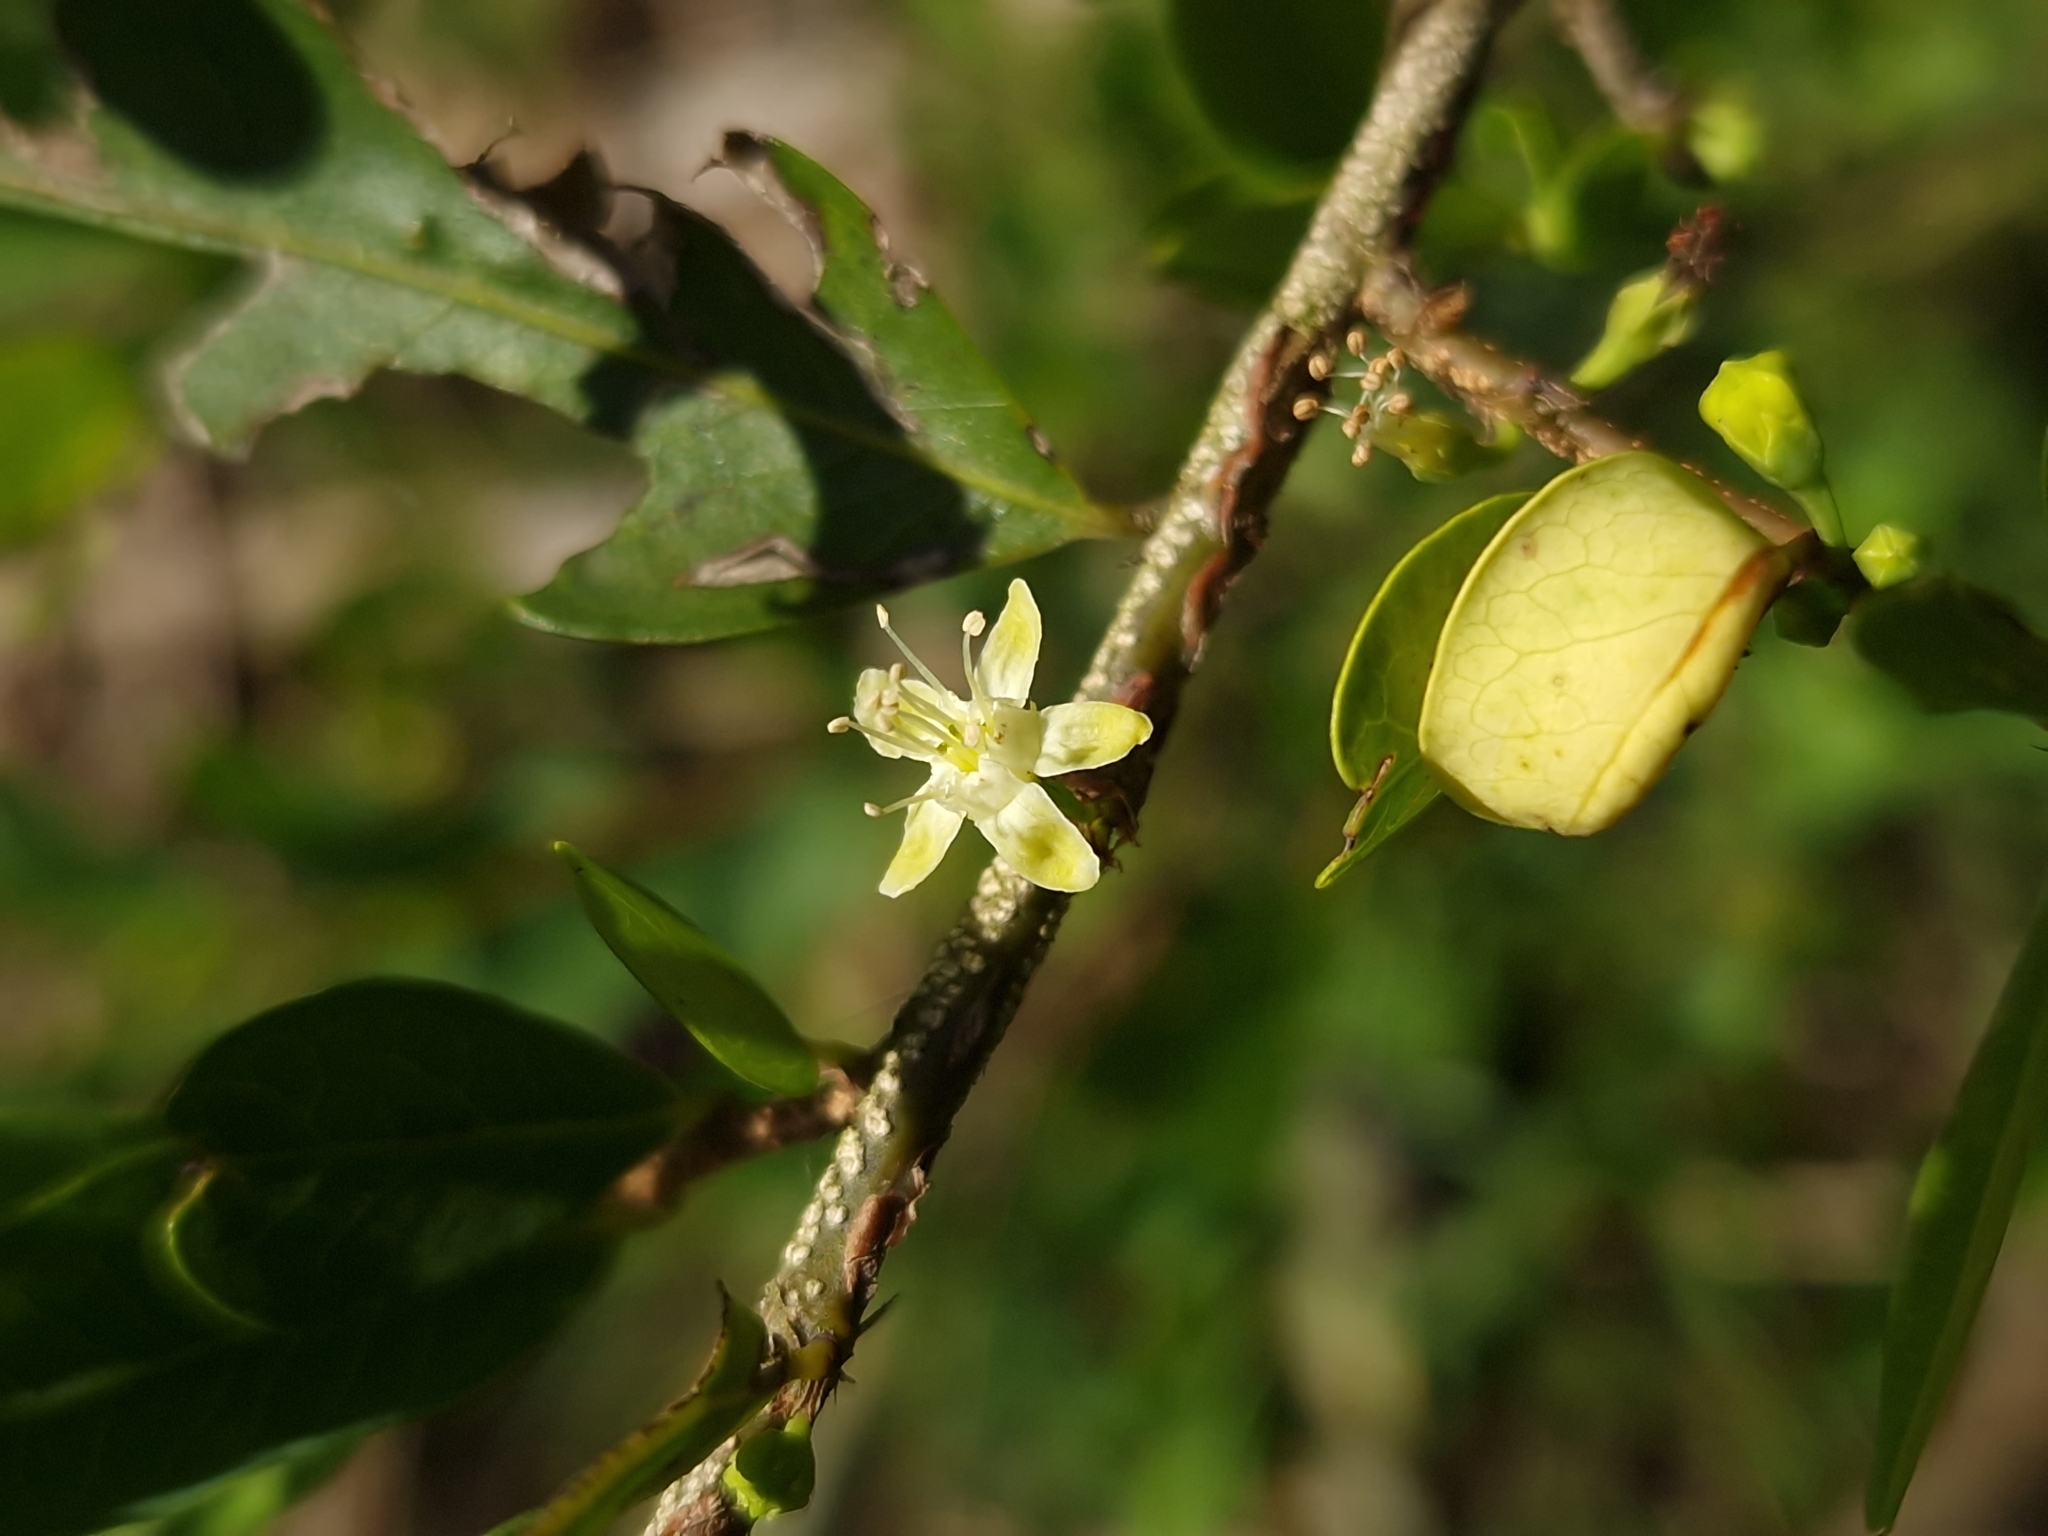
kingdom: Plantae
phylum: Tracheophyta
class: Magnoliopsida
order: Malpighiales
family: Erythroxylaceae
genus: Erythroxylum
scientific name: Erythroxylum microphyllum
